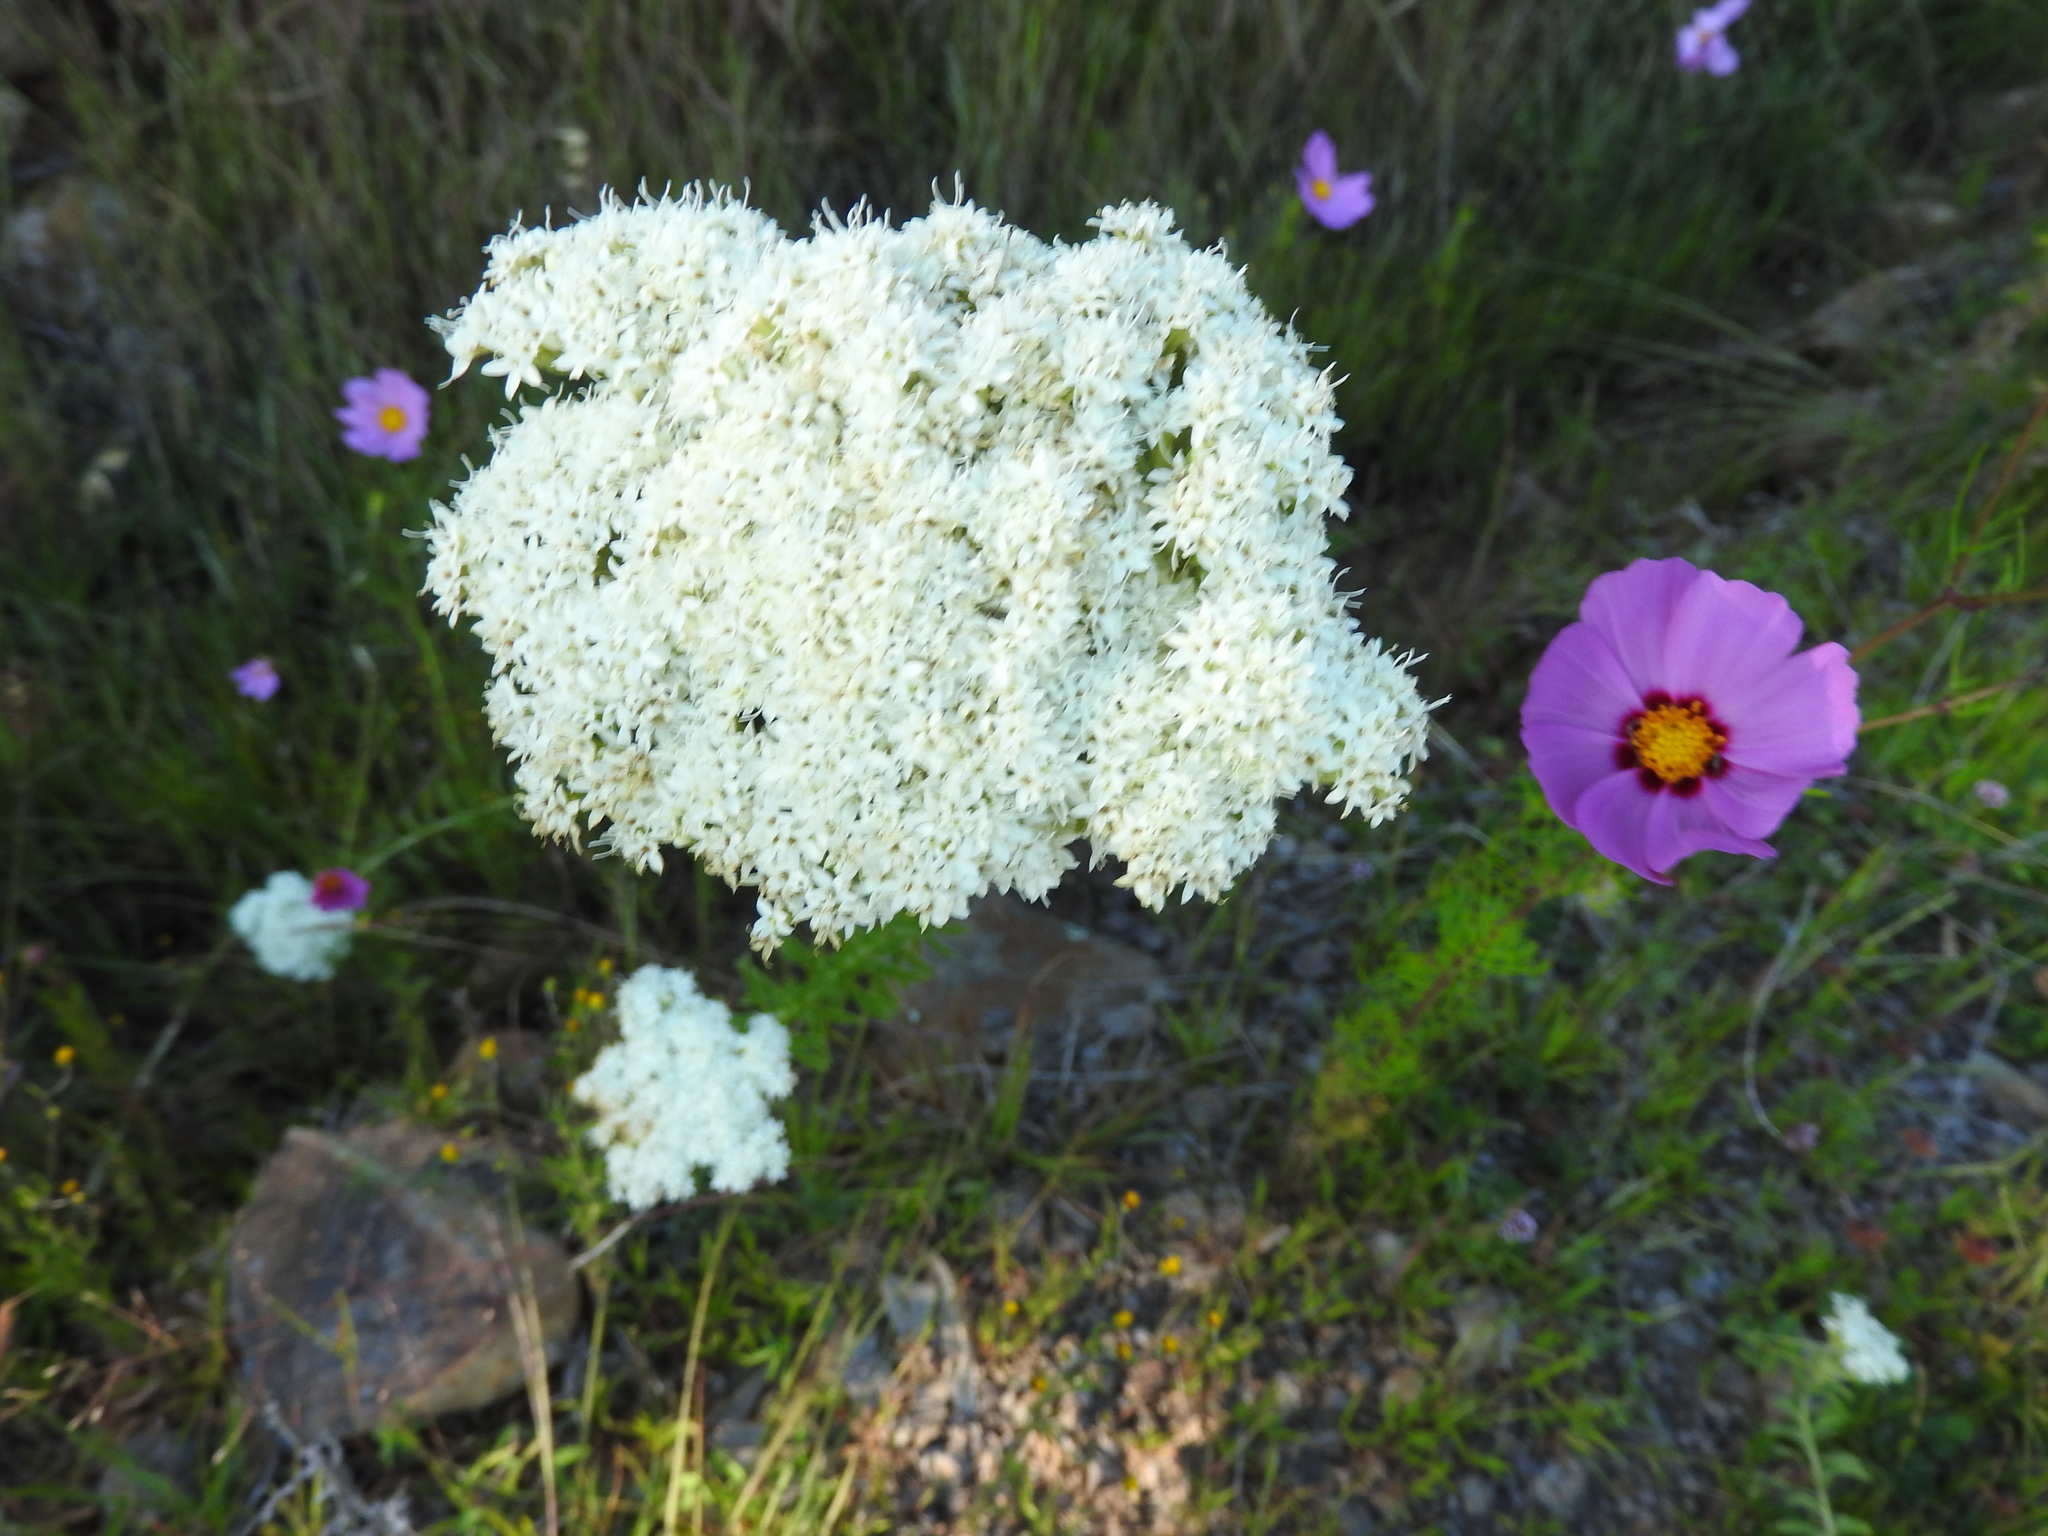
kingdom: Plantae
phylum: Tracheophyta
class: Magnoliopsida
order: Asterales
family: Asteraceae
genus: Cosmos
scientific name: Cosmos bipinnatus
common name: Garden cosmos
